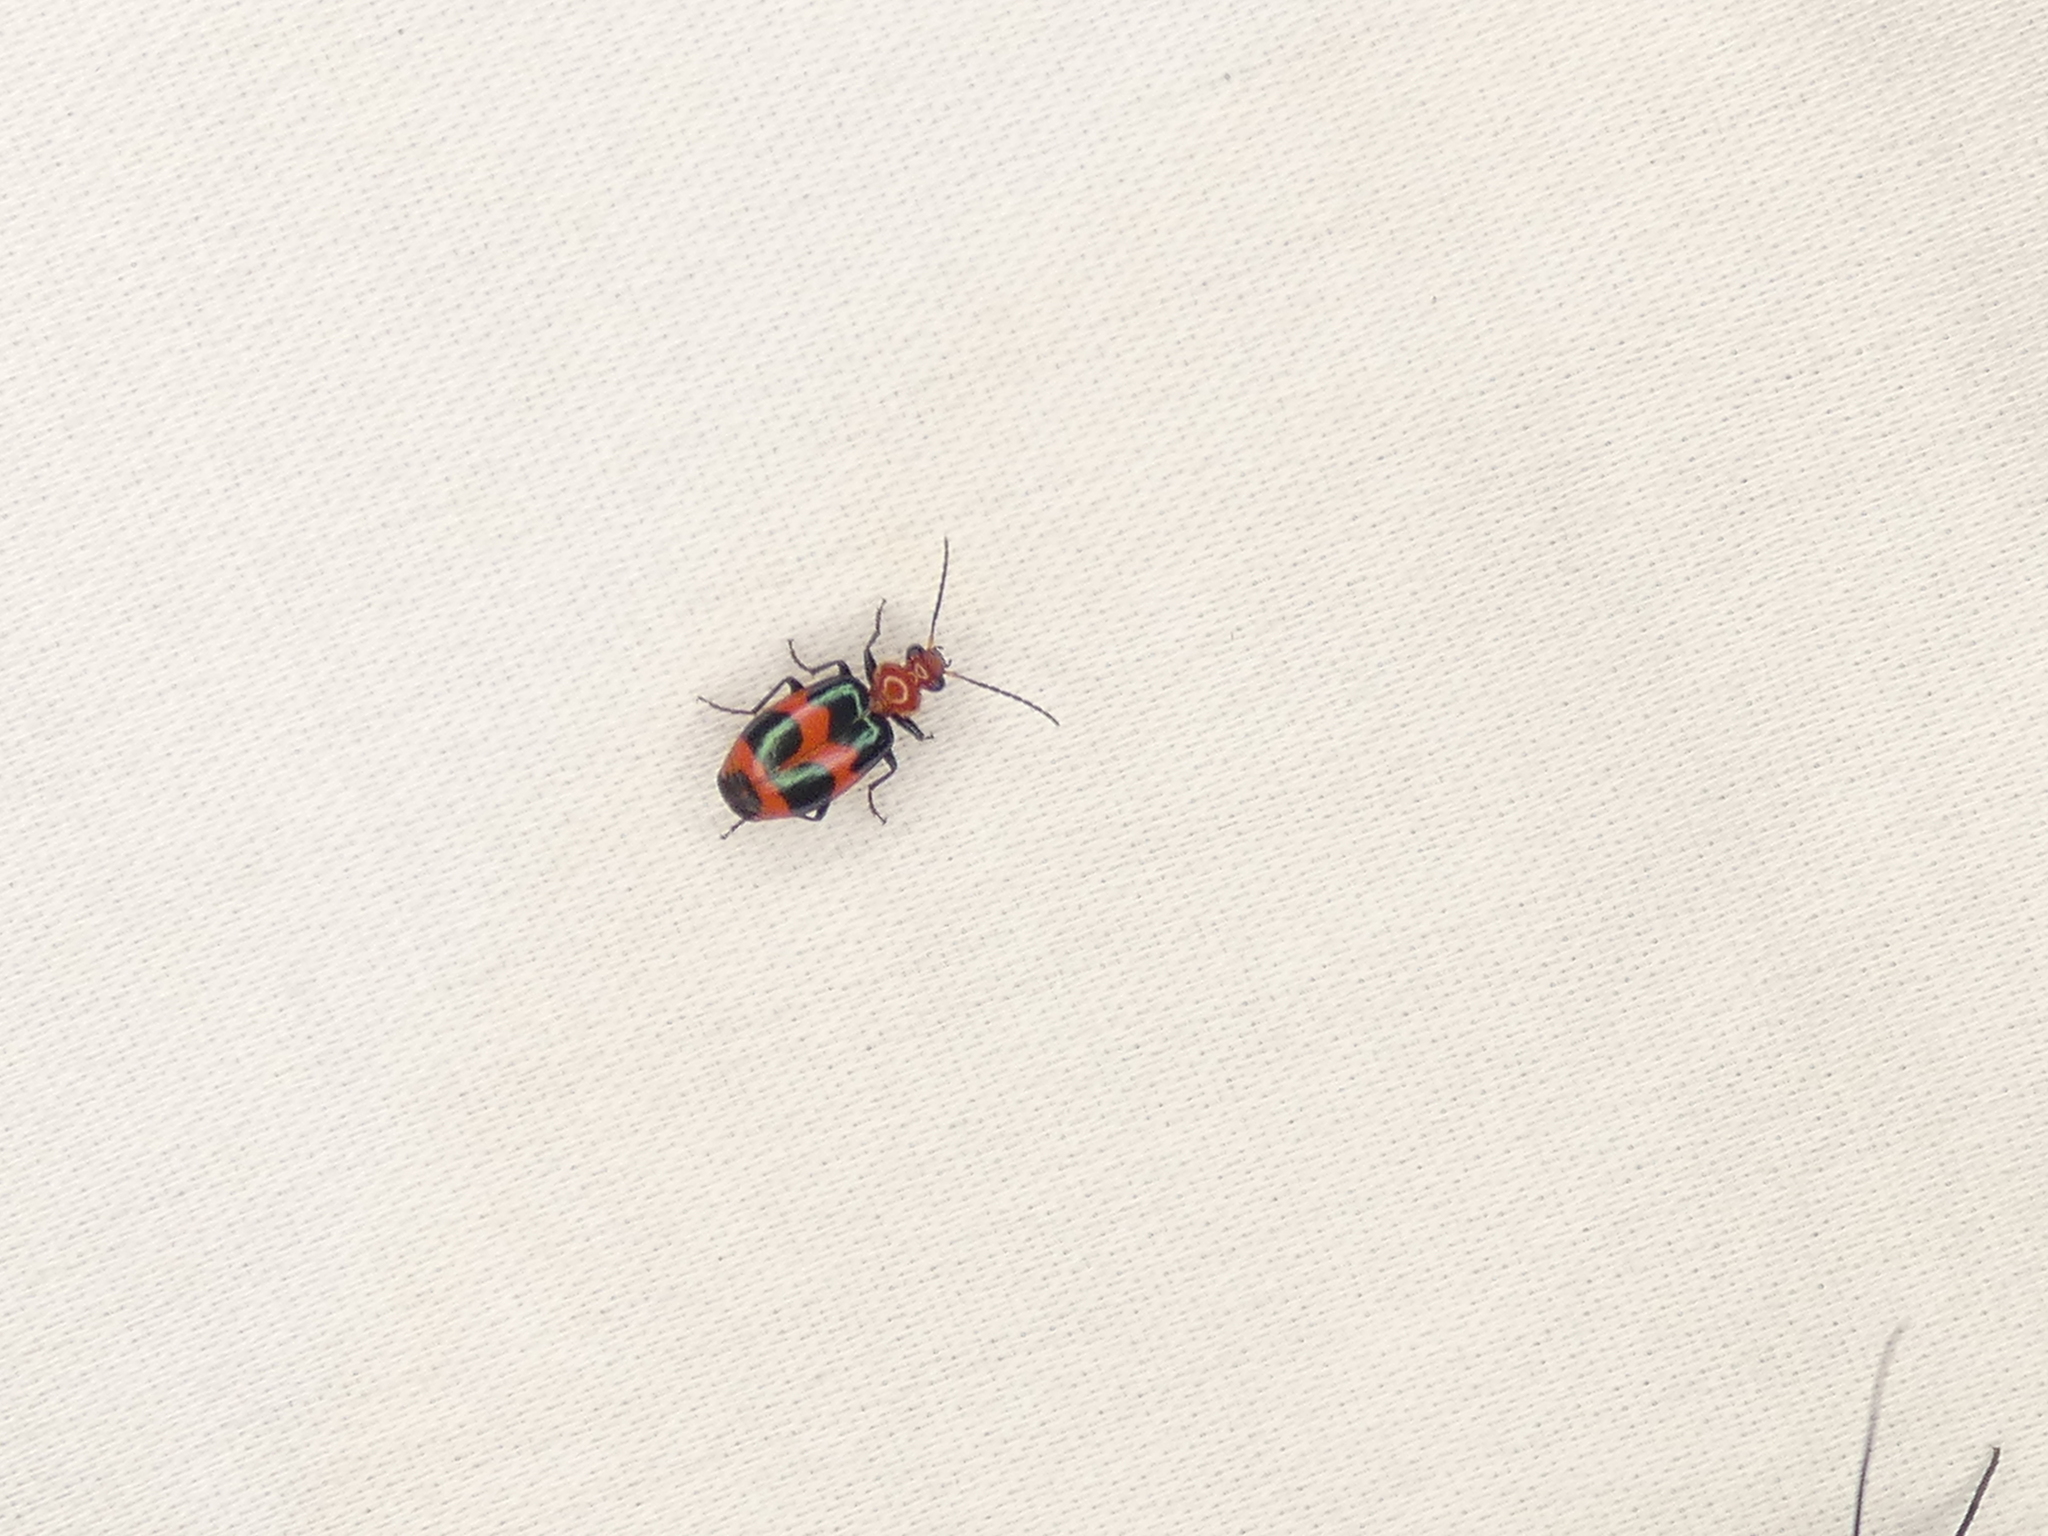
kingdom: Animalia
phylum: Arthropoda
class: Insecta
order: Coleoptera
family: Carabidae
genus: Lebia
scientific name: Lebia bitaeniata
